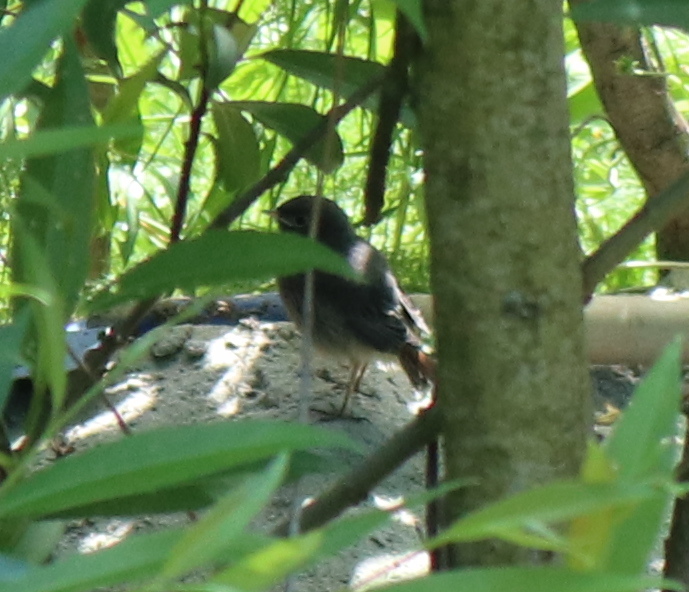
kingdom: Animalia
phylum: Chordata
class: Aves
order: Passeriformes
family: Muscicapidae
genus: Phoenicurus
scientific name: Phoenicurus ochruros
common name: Black redstart
